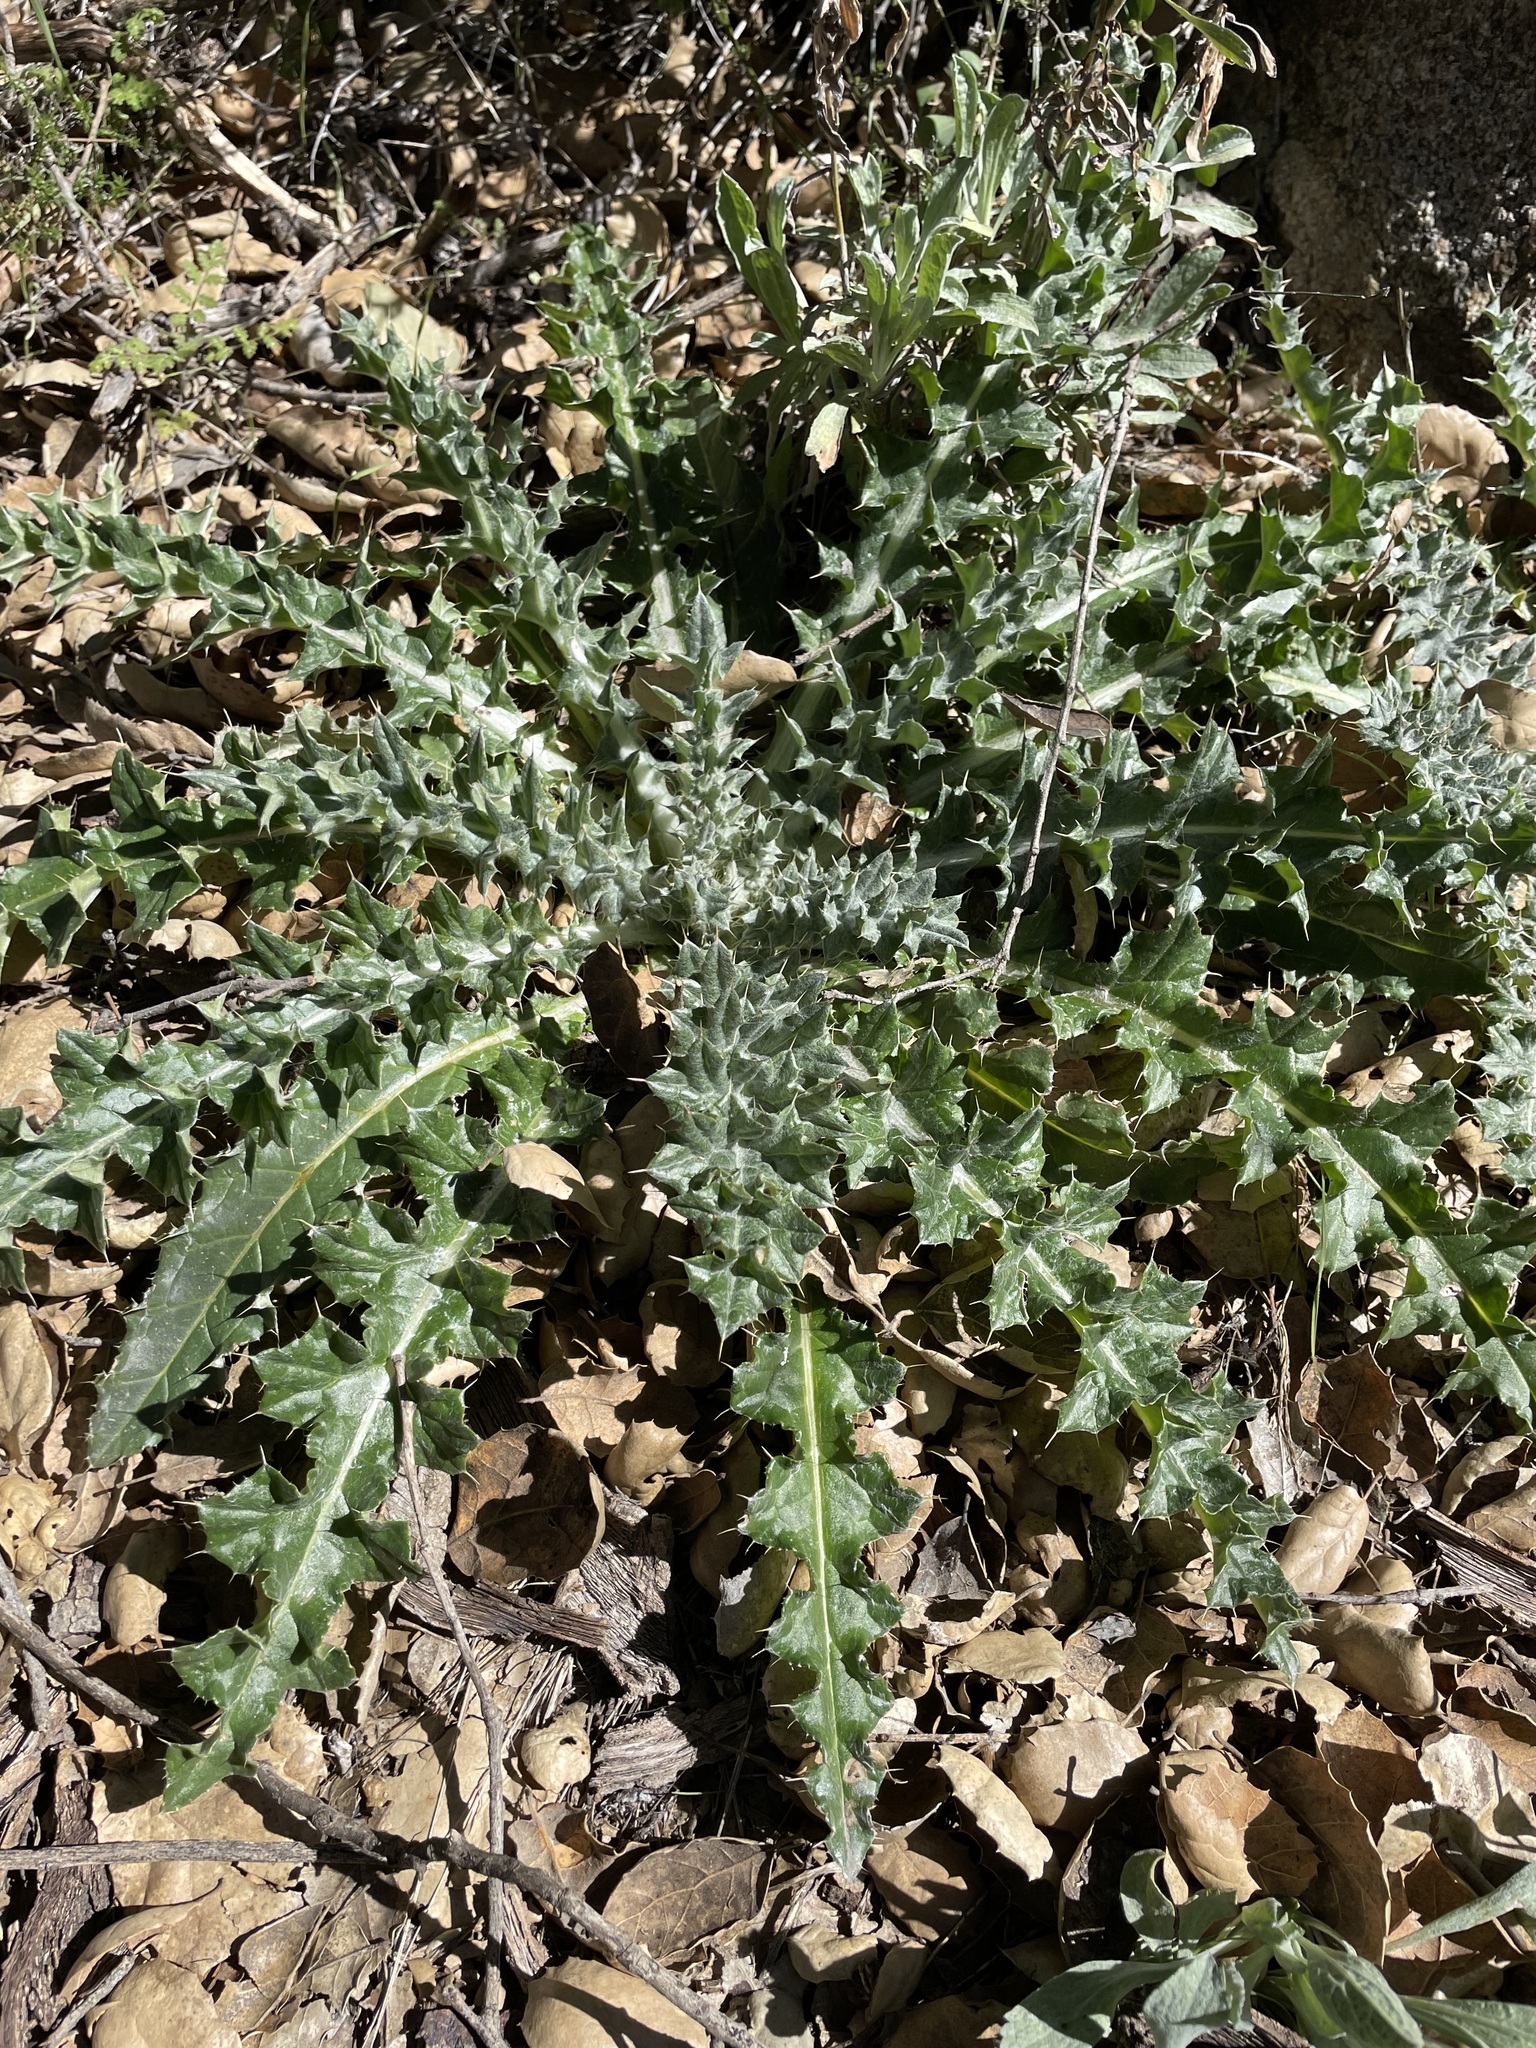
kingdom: Plantae
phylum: Tracheophyta
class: Magnoliopsida
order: Asterales
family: Asteraceae
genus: Cirsium
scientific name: Cirsium occidentale
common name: Western thistle
